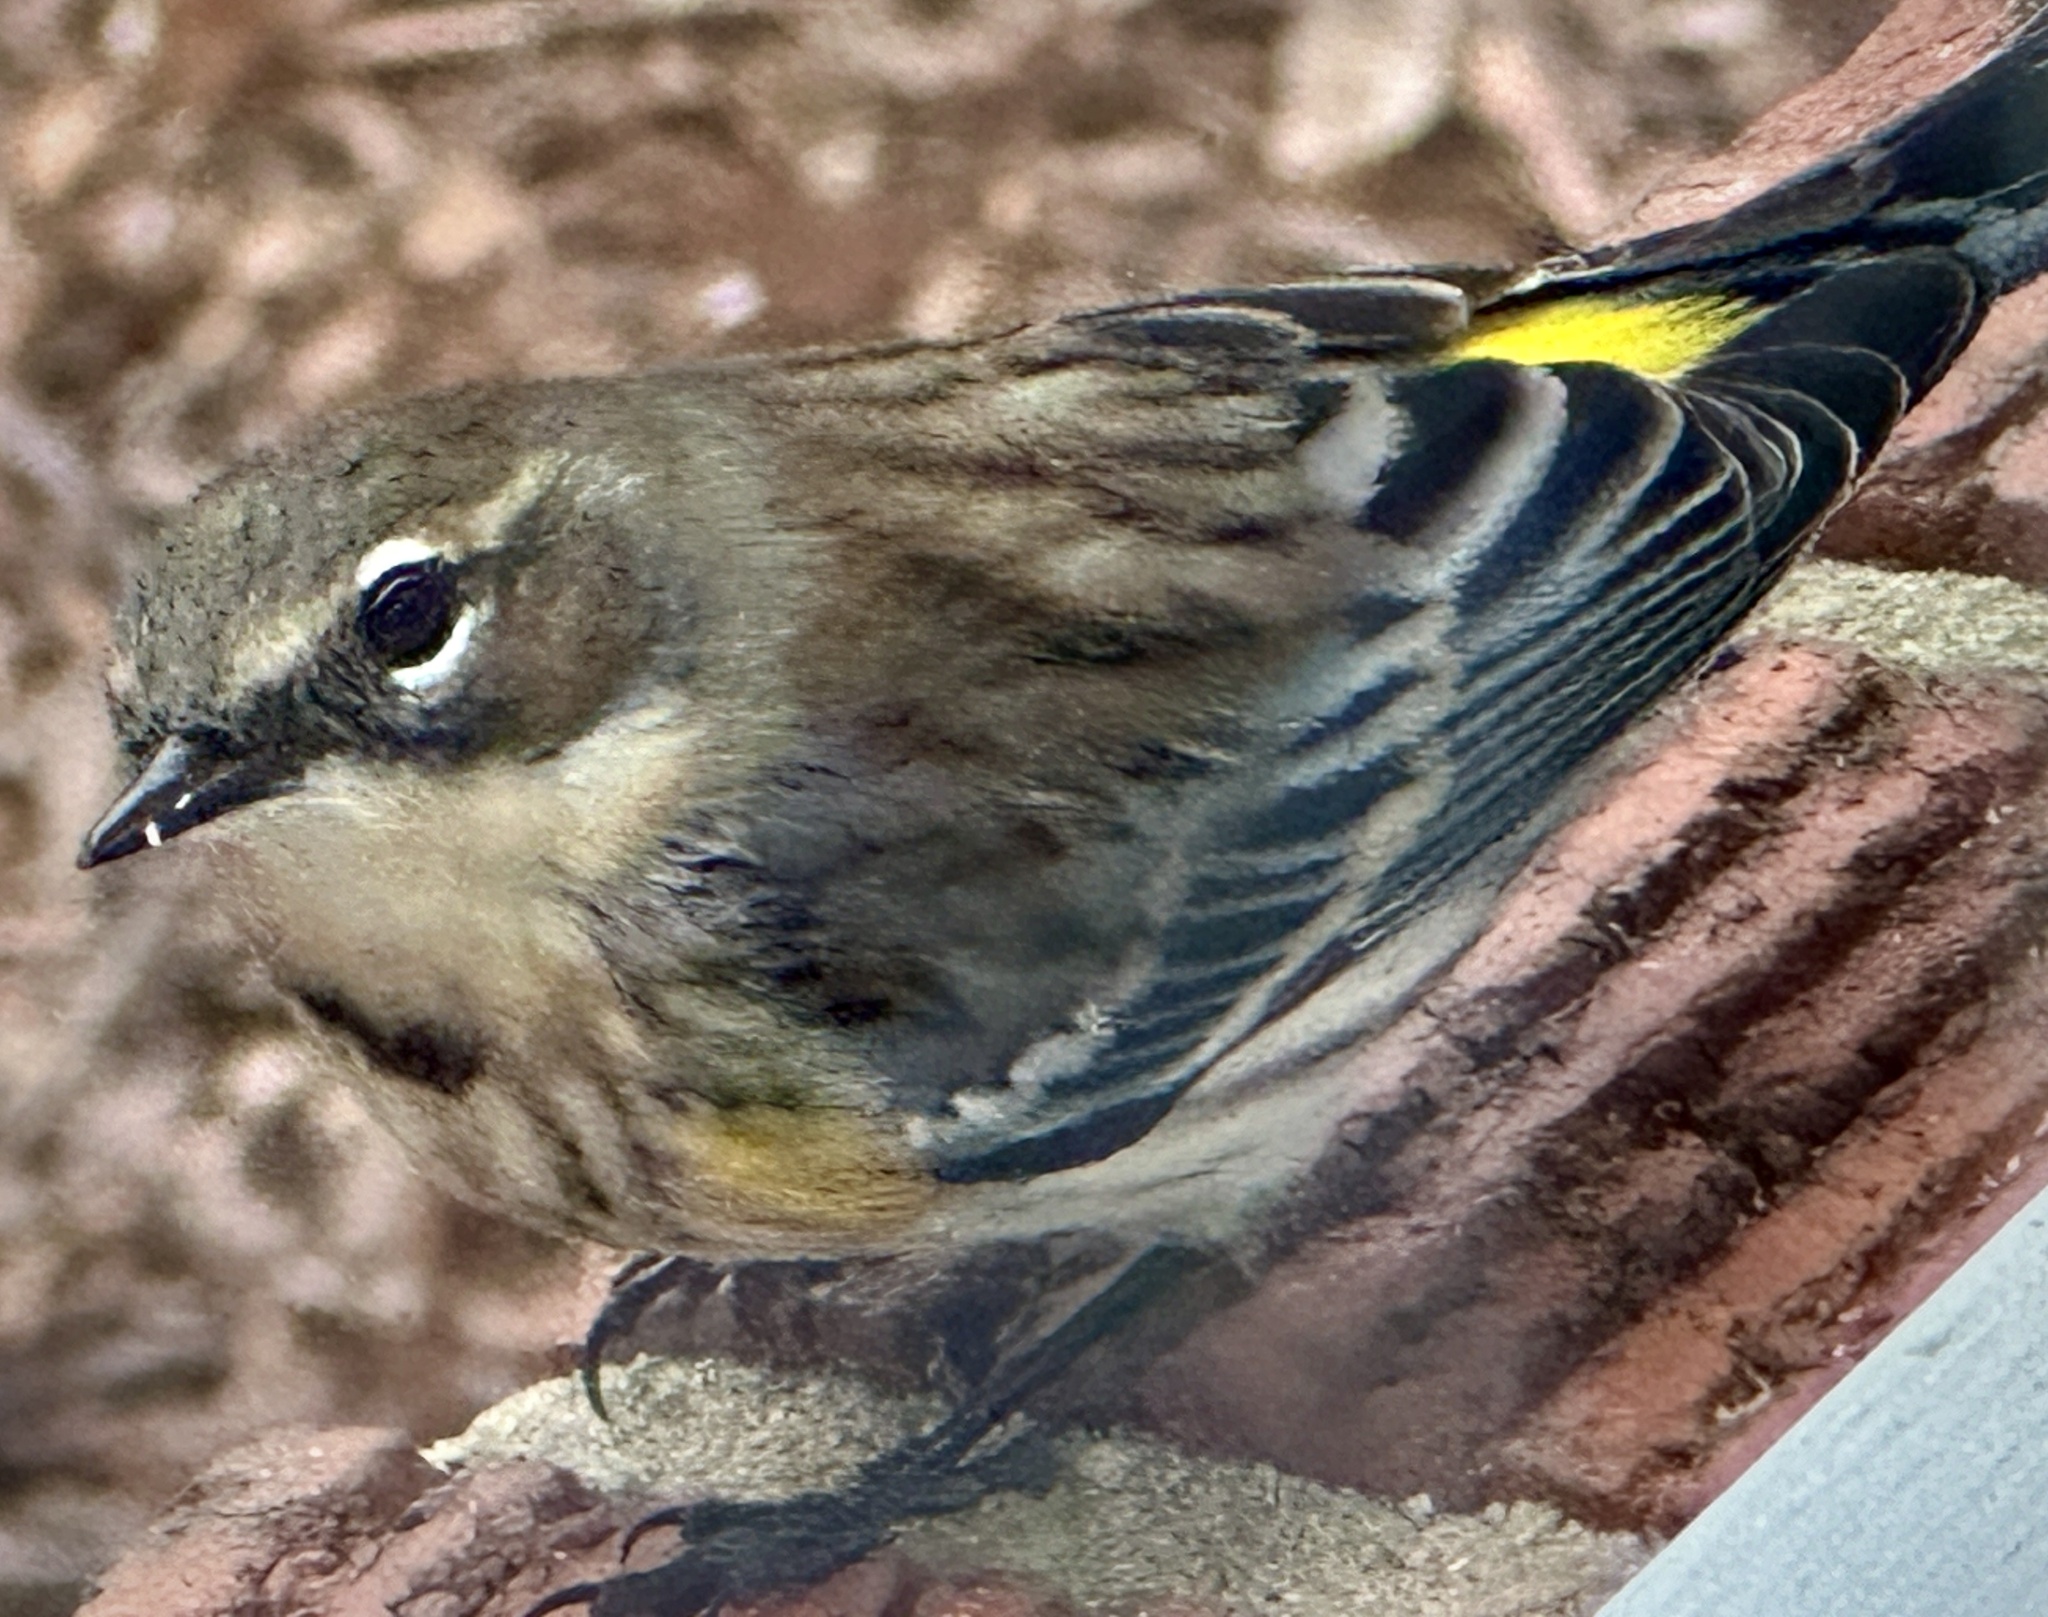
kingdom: Animalia
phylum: Chordata
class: Aves
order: Passeriformes
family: Parulidae
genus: Setophaga
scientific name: Setophaga coronata
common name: Myrtle warbler
